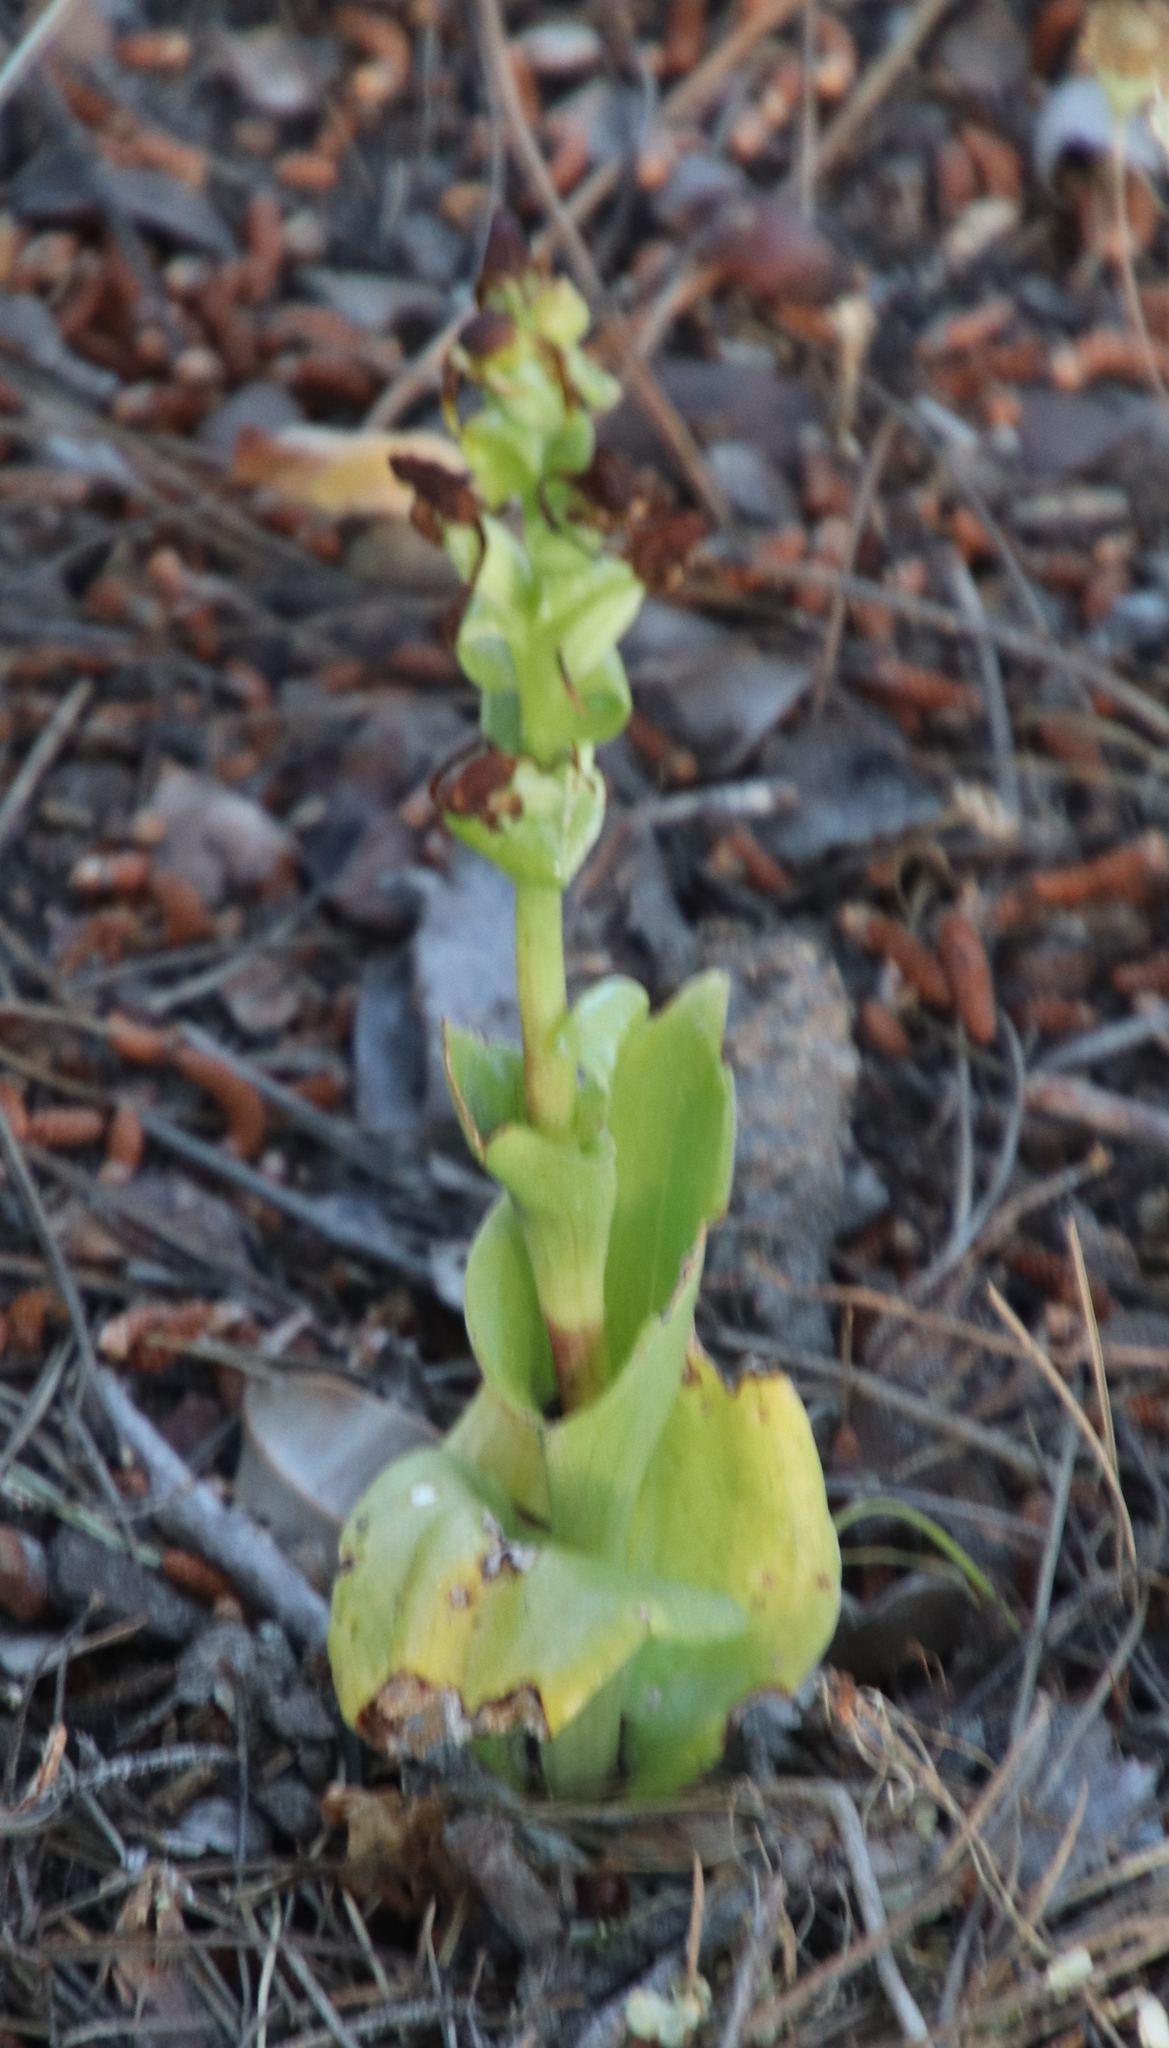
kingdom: Plantae
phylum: Tracheophyta
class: Liliopsida
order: Asparagales
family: Orchidaceae
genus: Satyrium
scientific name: Satyrium odorum
